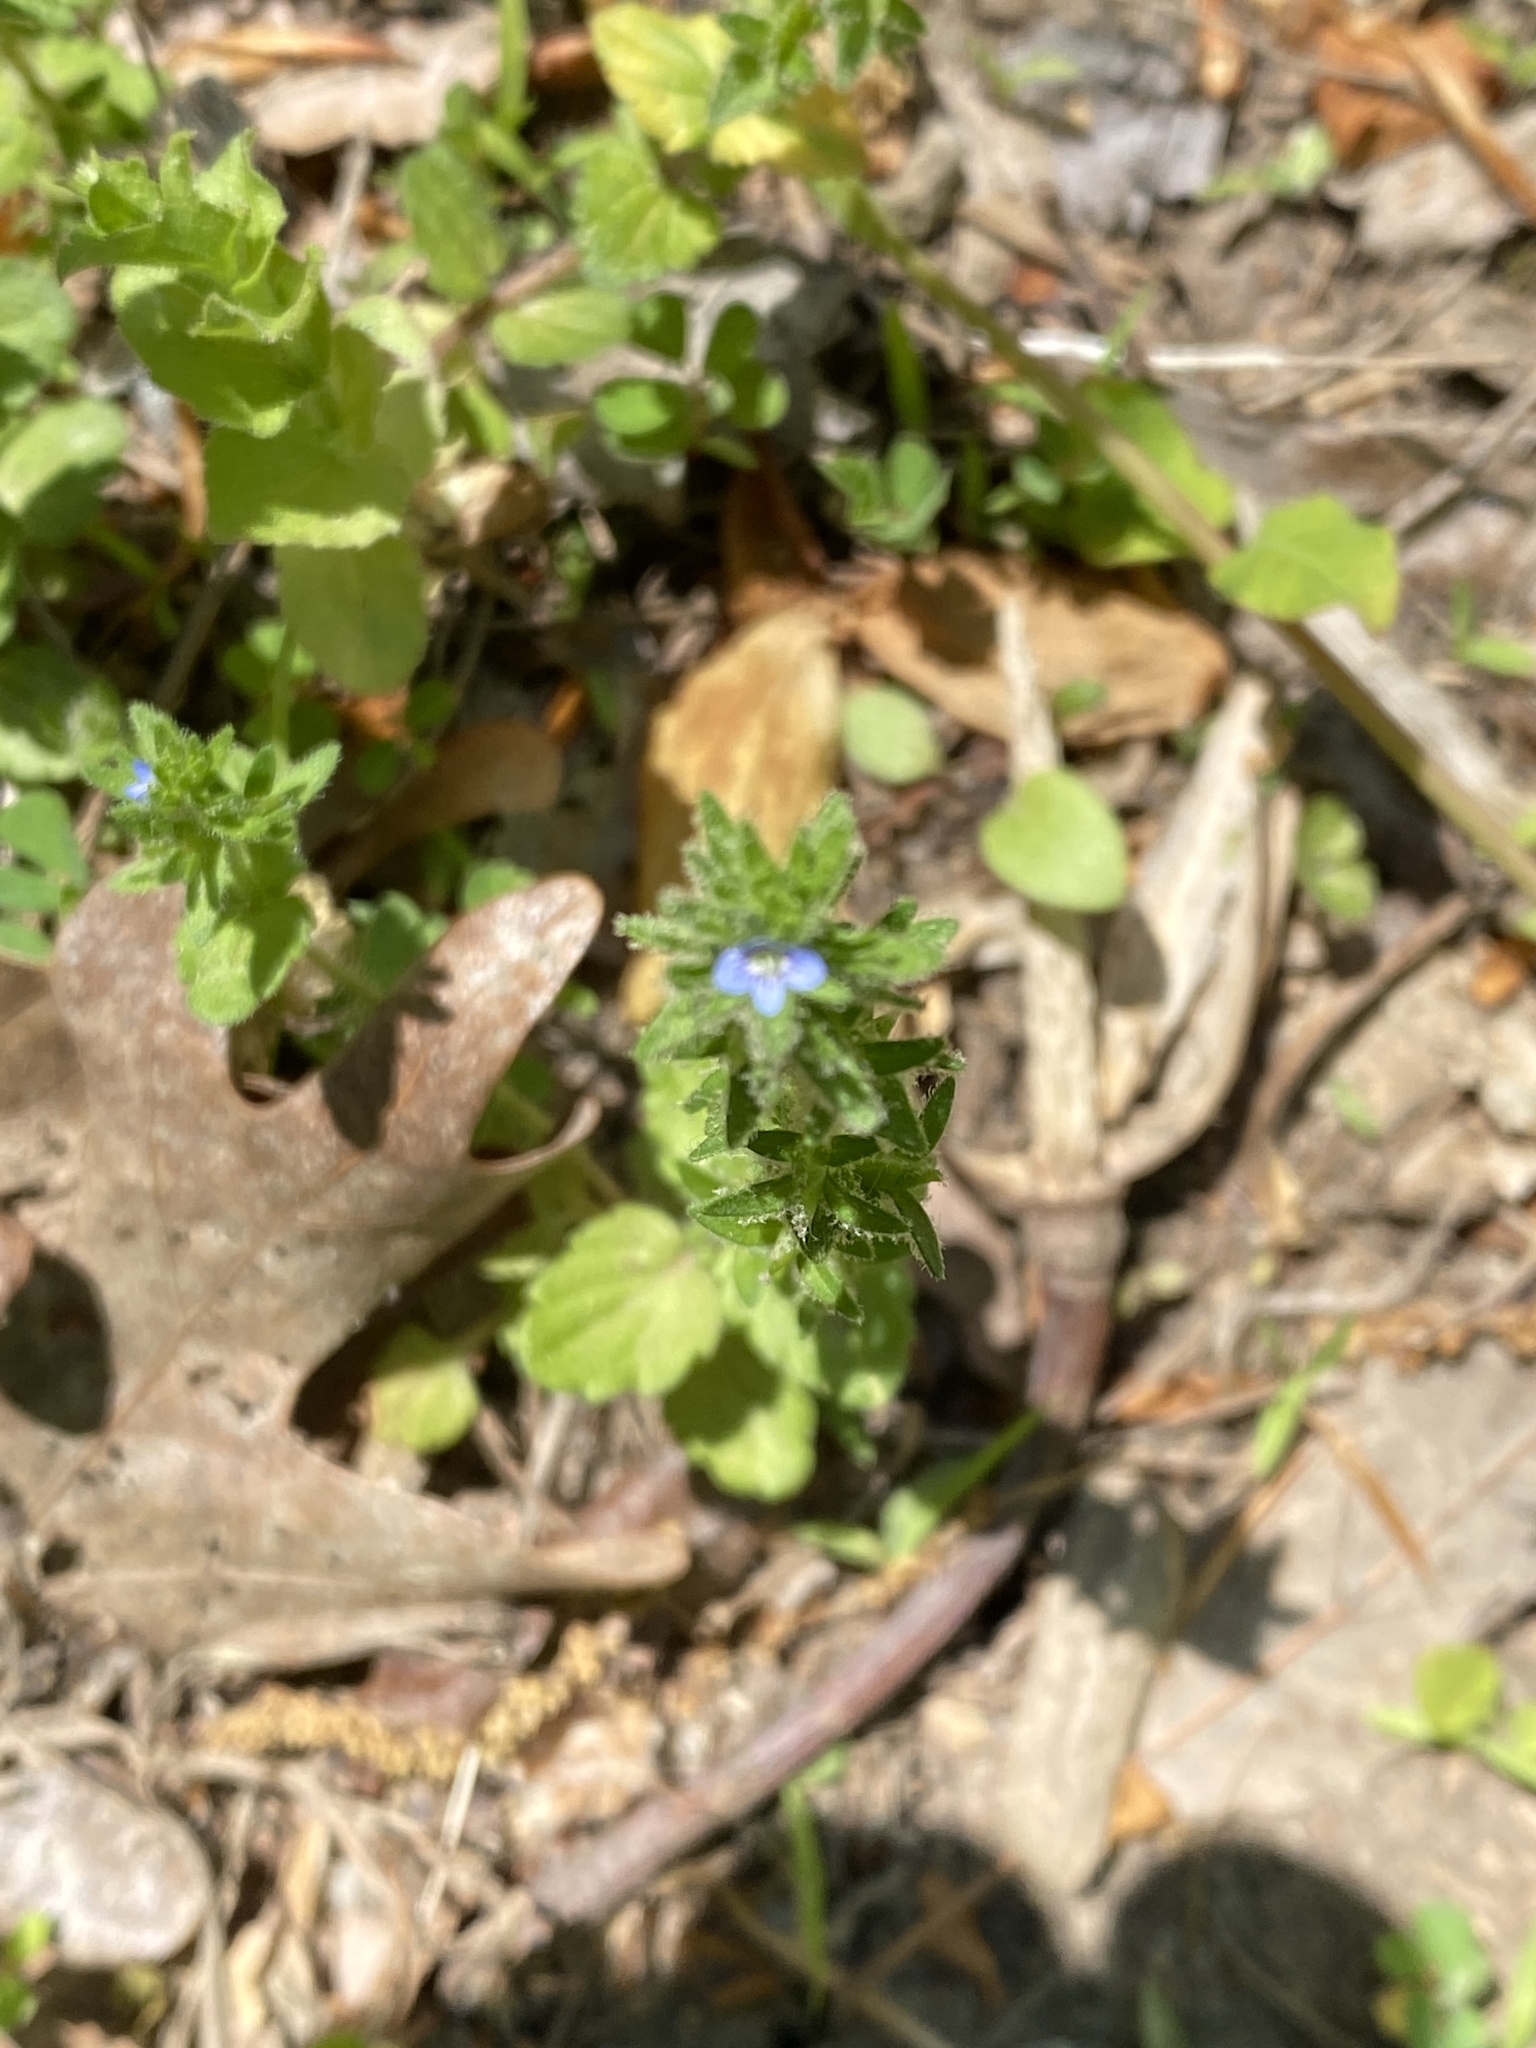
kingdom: Plantae
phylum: Tracheophyta
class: Magnoliopsida
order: Lamiales
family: Plantaginaceae
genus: Veronica
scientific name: Veronica arvensis
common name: Corn speedwell
